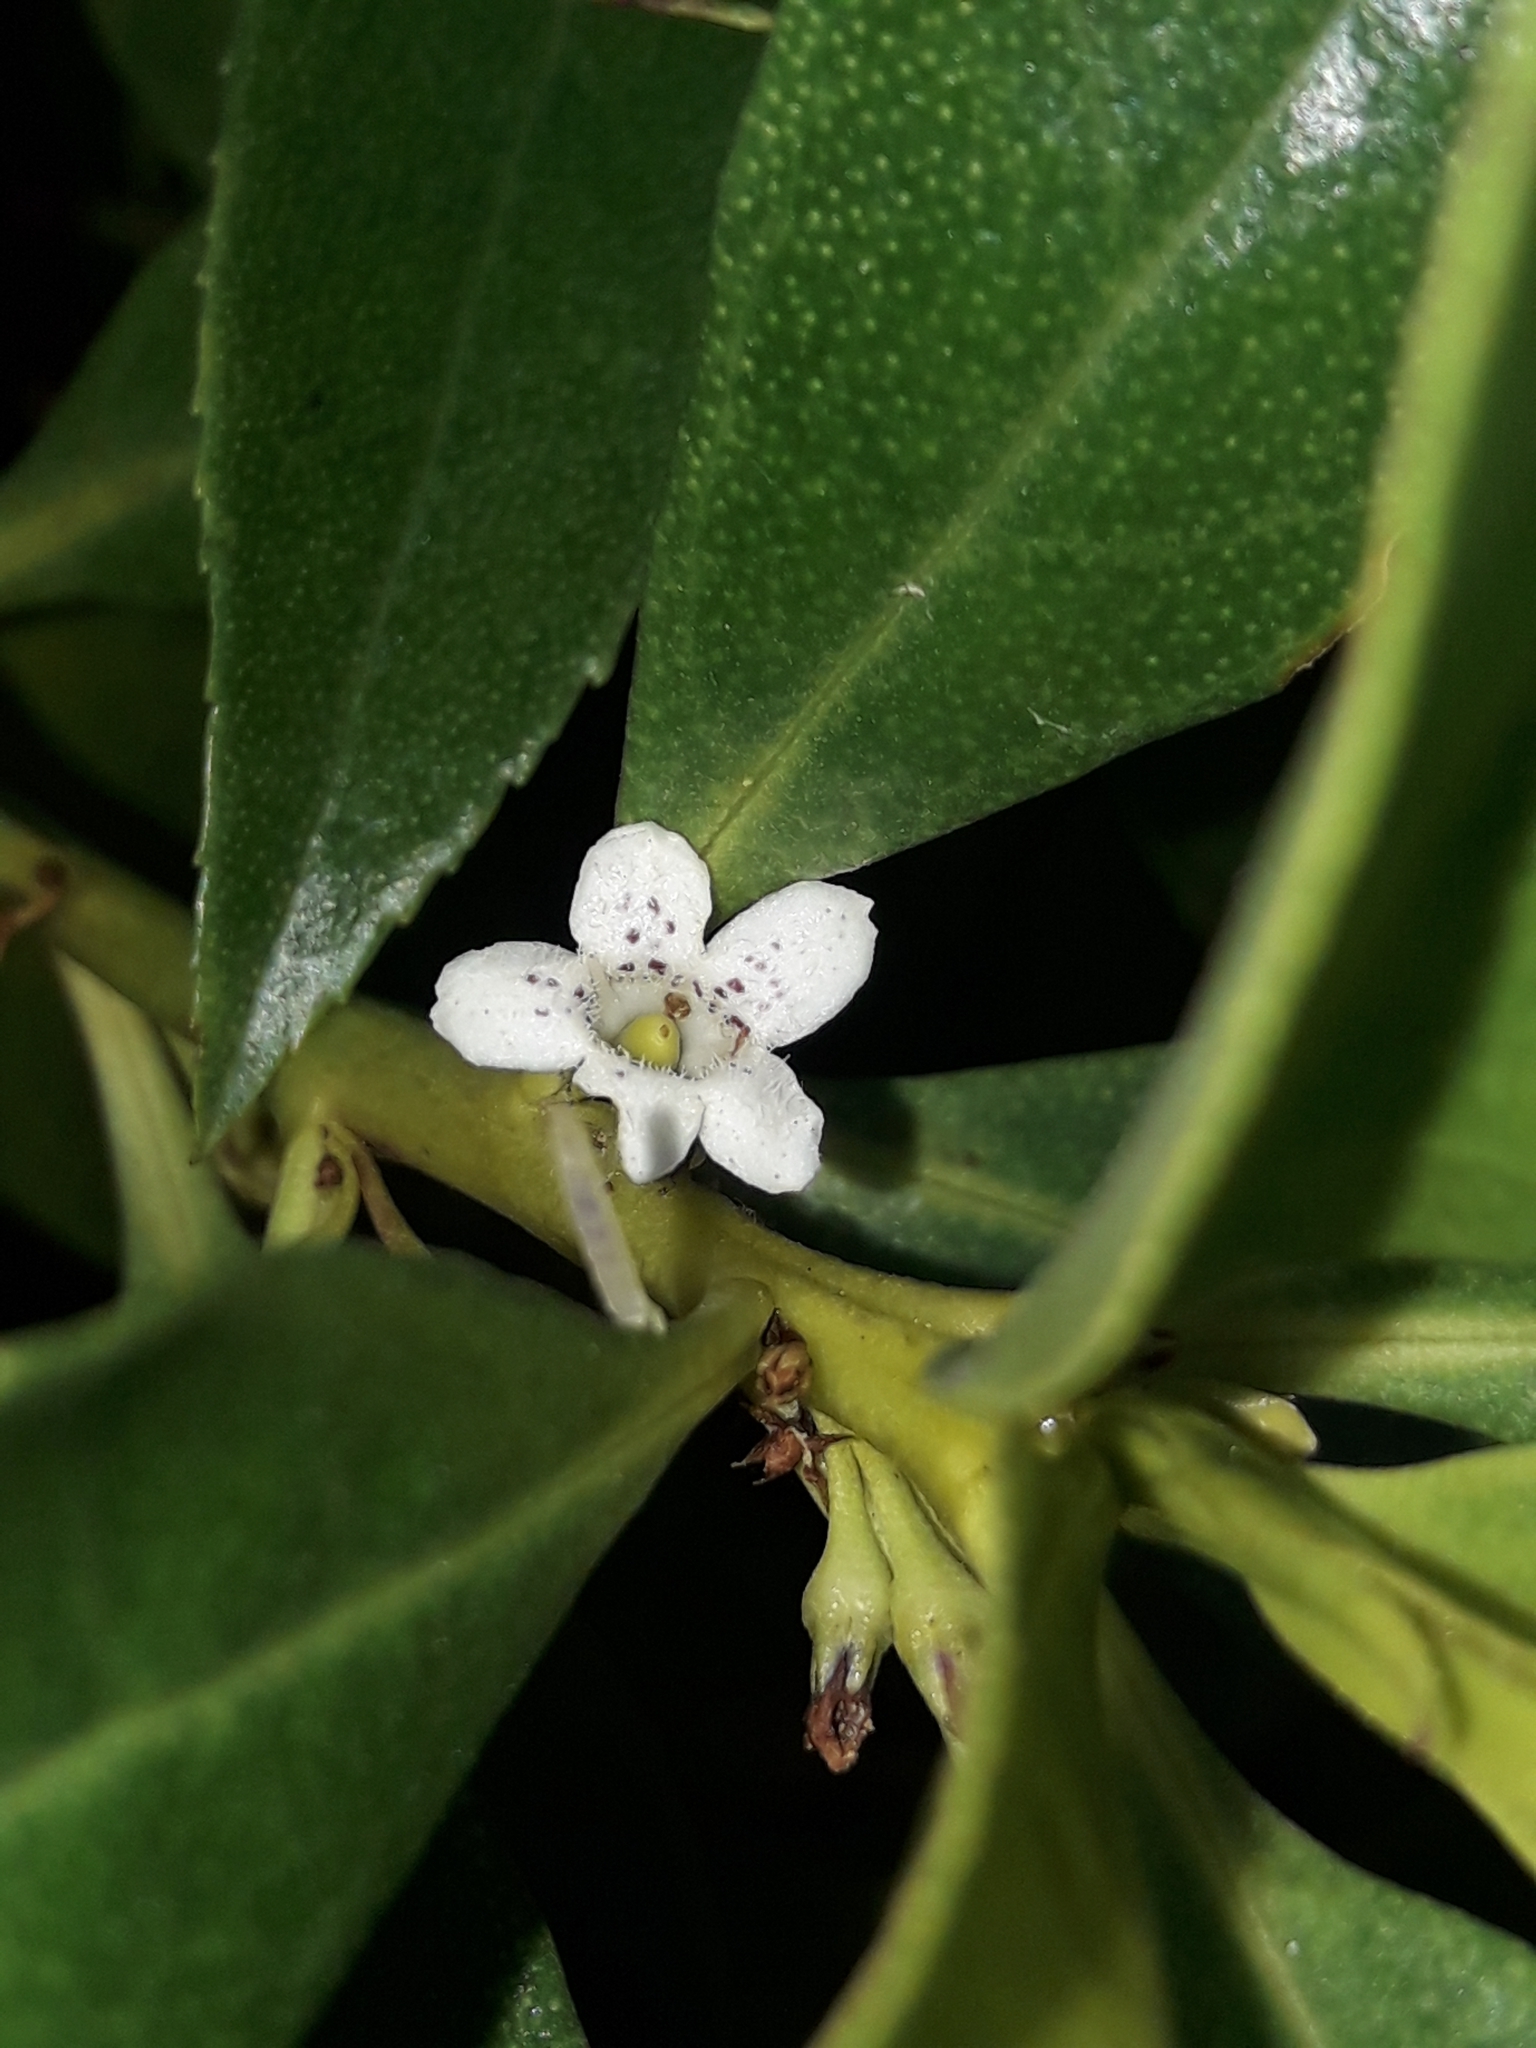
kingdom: Plantae
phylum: Tracheophyta
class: Magnoliopsida
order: Lamiales
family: Scrophulariaceae
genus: Myoporum
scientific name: Myoporum laetum
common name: Ngaio tree
